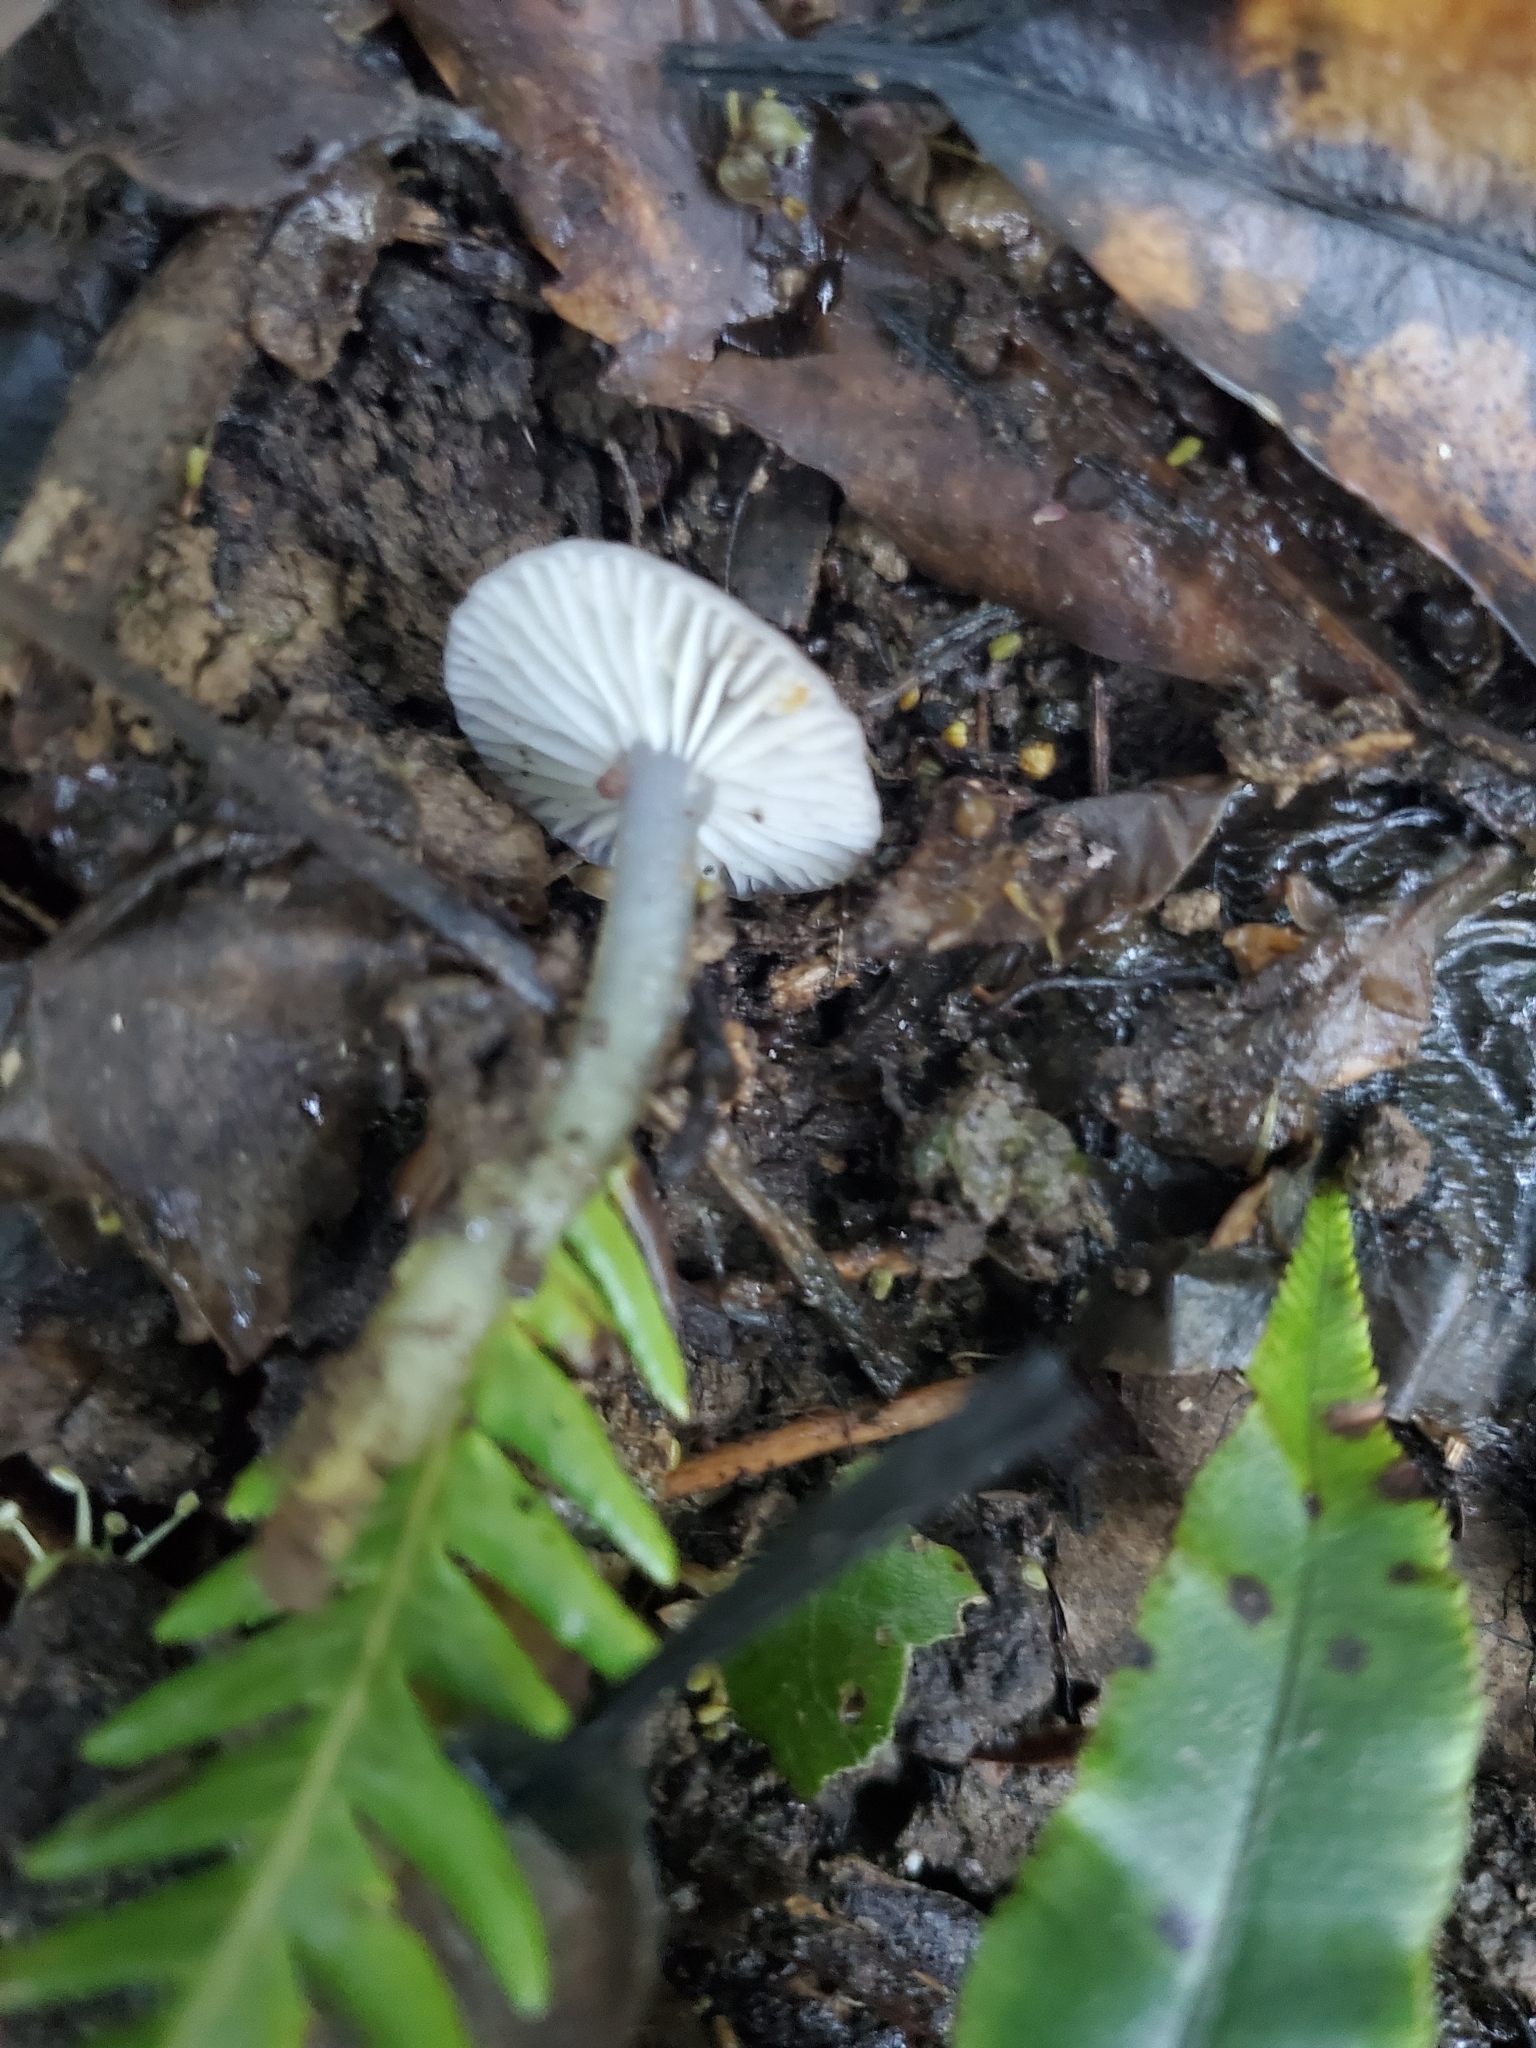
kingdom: Fungi
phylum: Basidiomycota
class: Agaricomycetes
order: Agaricales
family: Hygrophoraceae
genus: Gliophorus
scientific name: Gliophorus lilacipes
